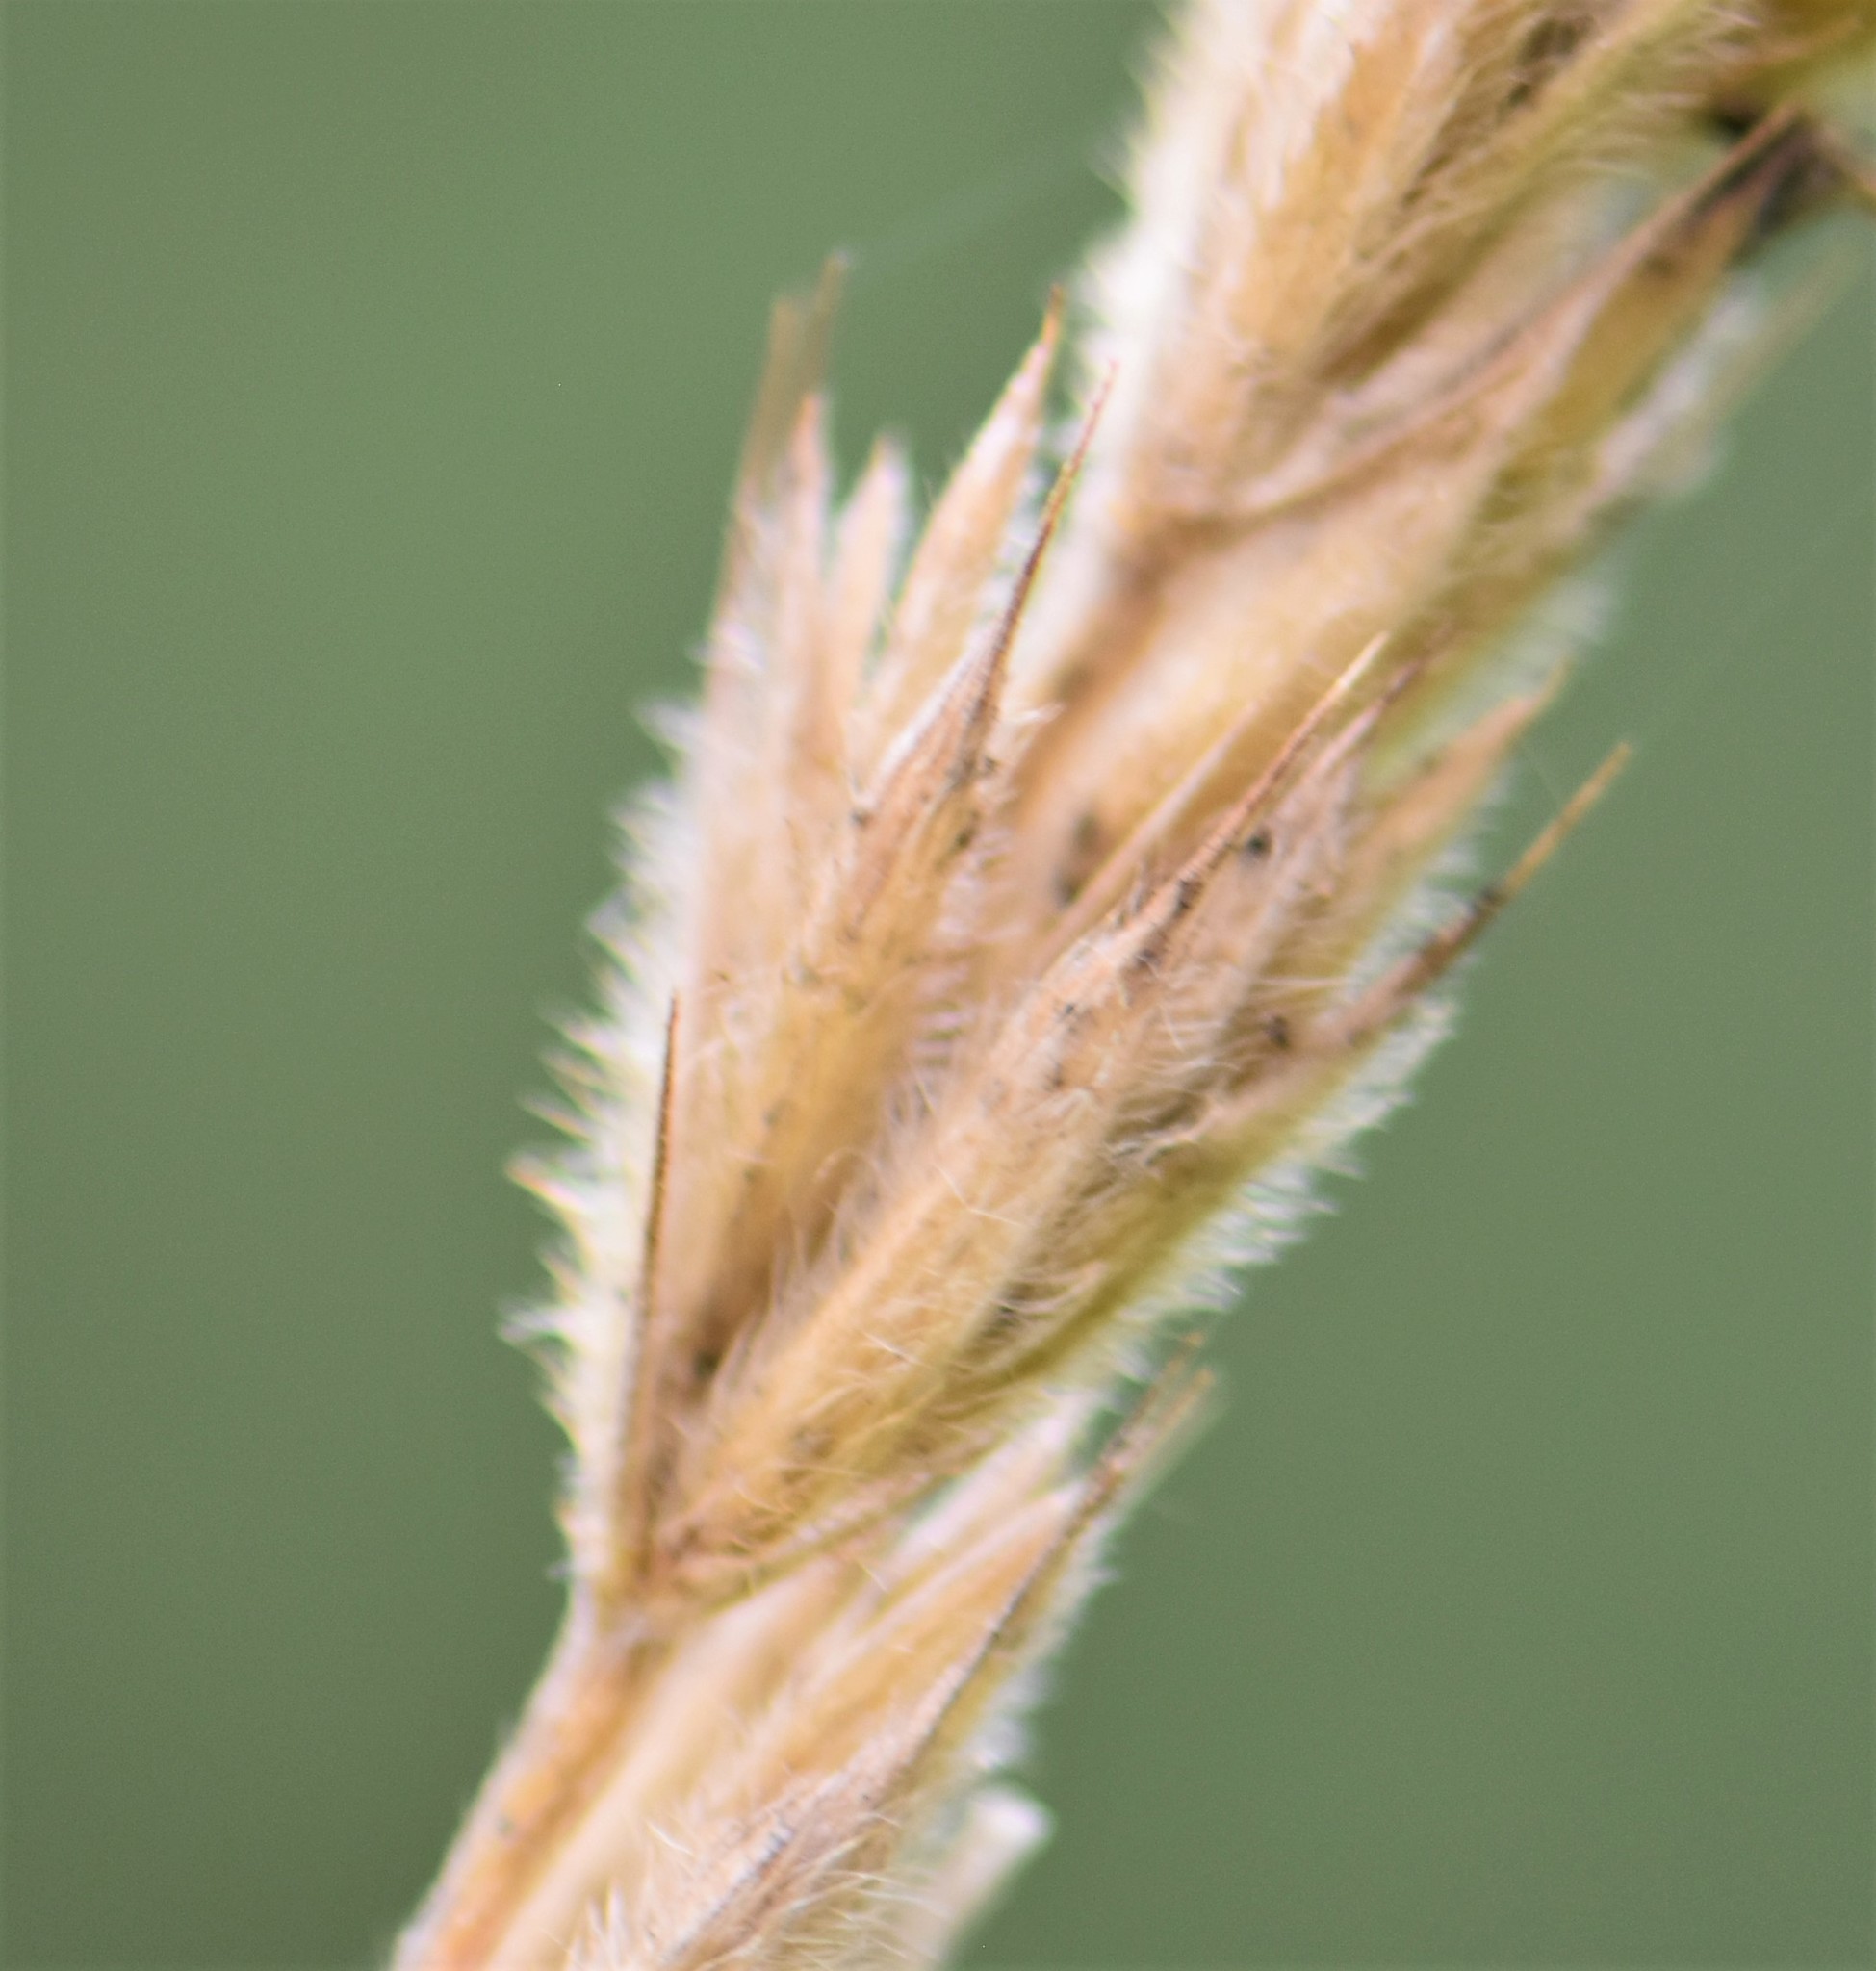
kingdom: Plantae
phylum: Tracheophyta
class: Liliopsida
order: Poales
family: Poaceae
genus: Leymus
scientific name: Leymus innovatus
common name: Boreal wild rye
